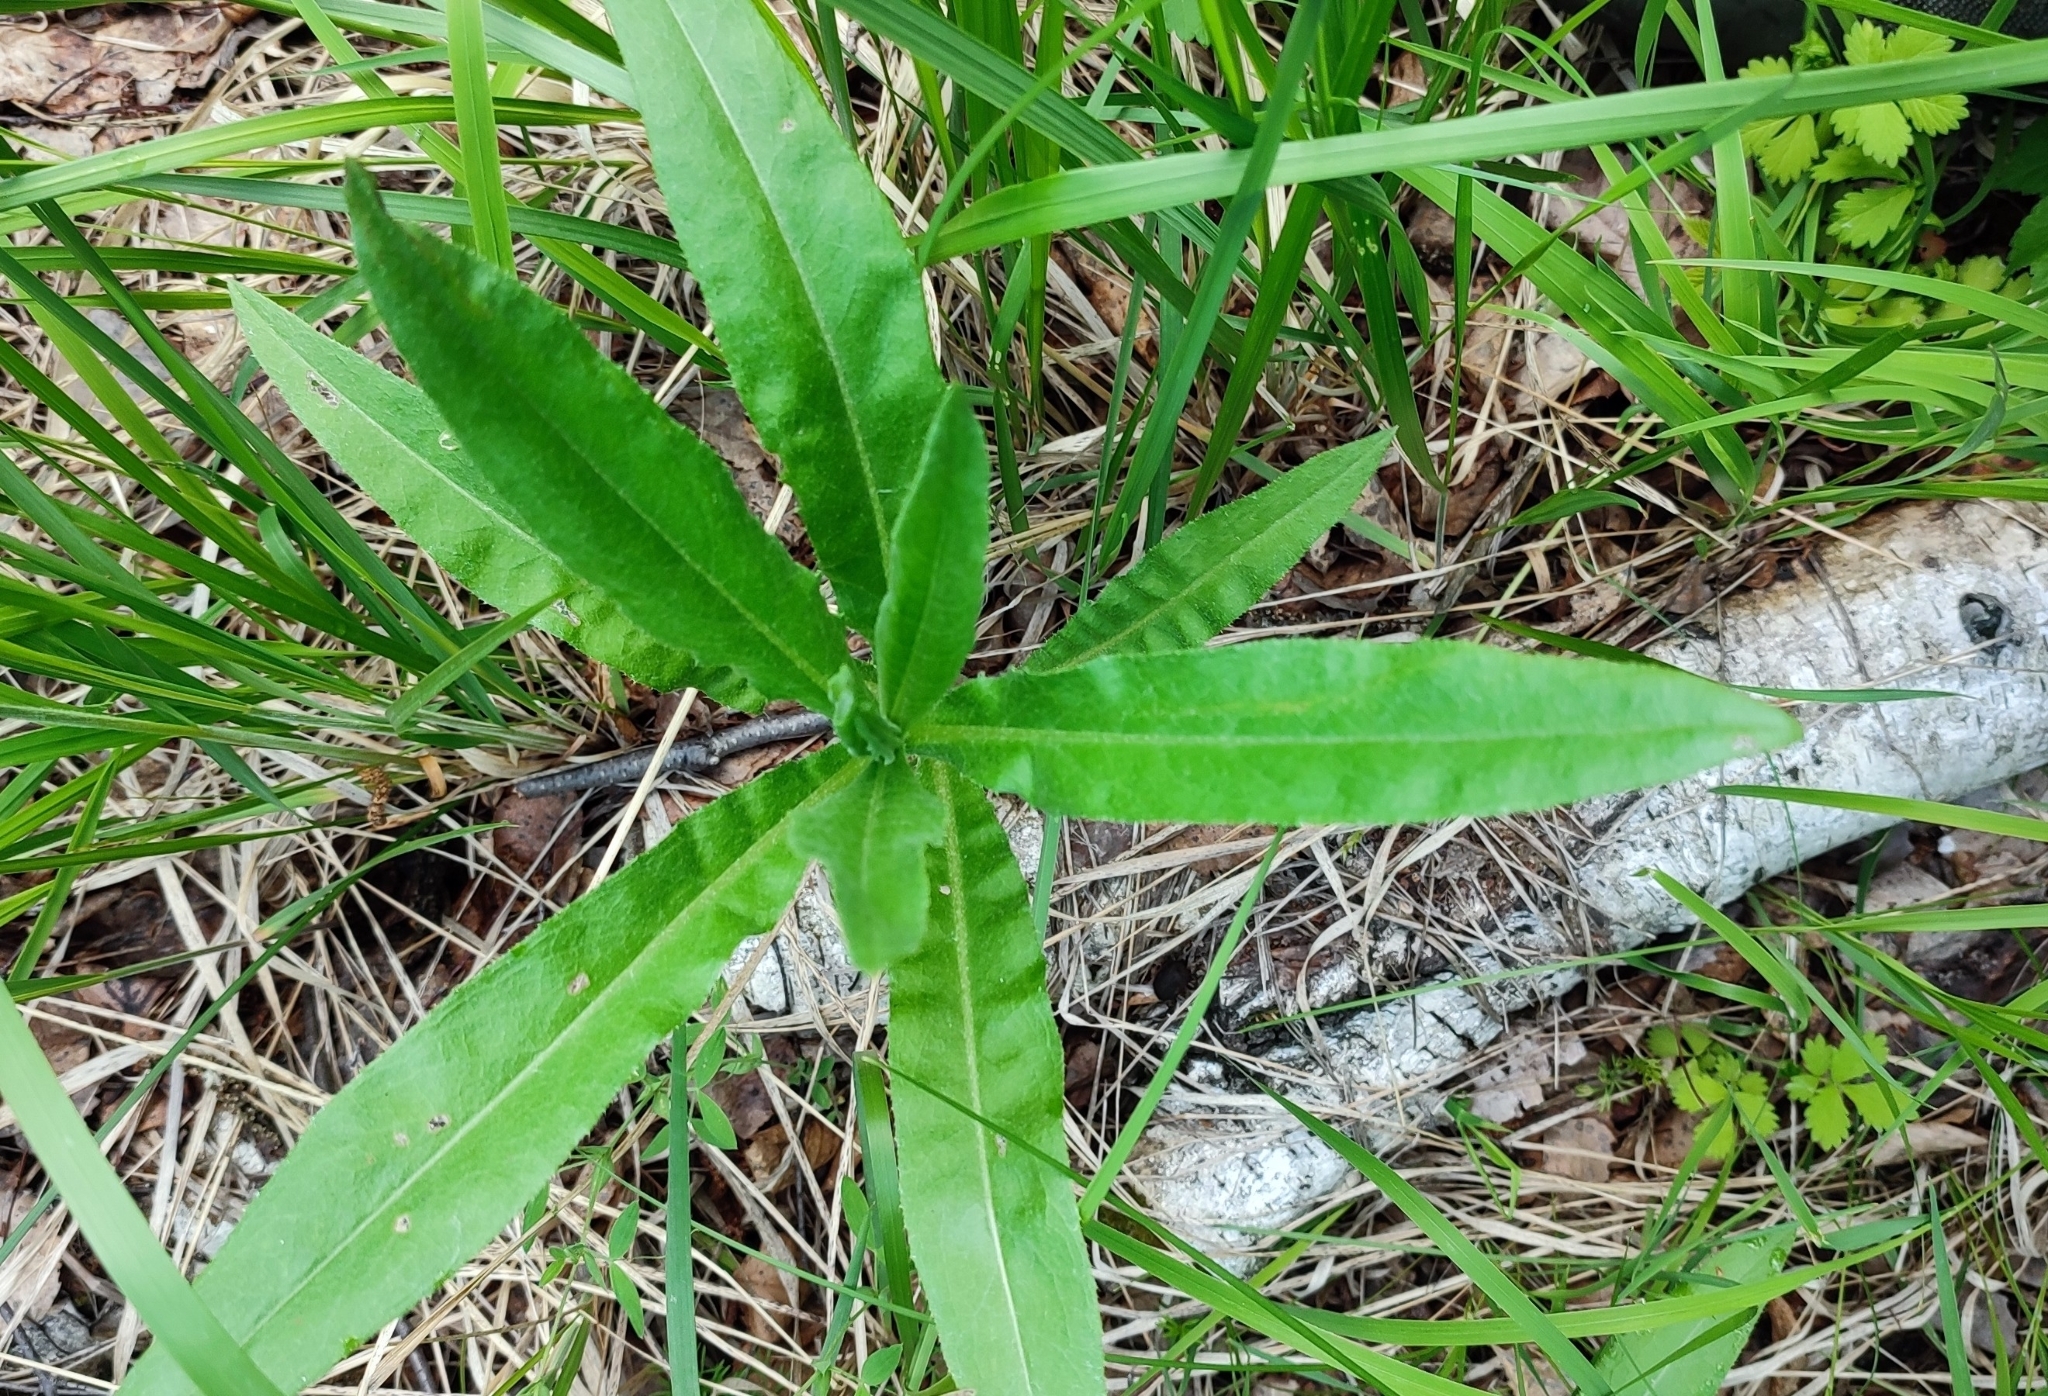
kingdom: Plantae
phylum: Tracheophyta
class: Magnoliopsida
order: Asterales
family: Asteraceae
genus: Cirsium
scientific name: Cirsium arvense
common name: Creeping thistle
